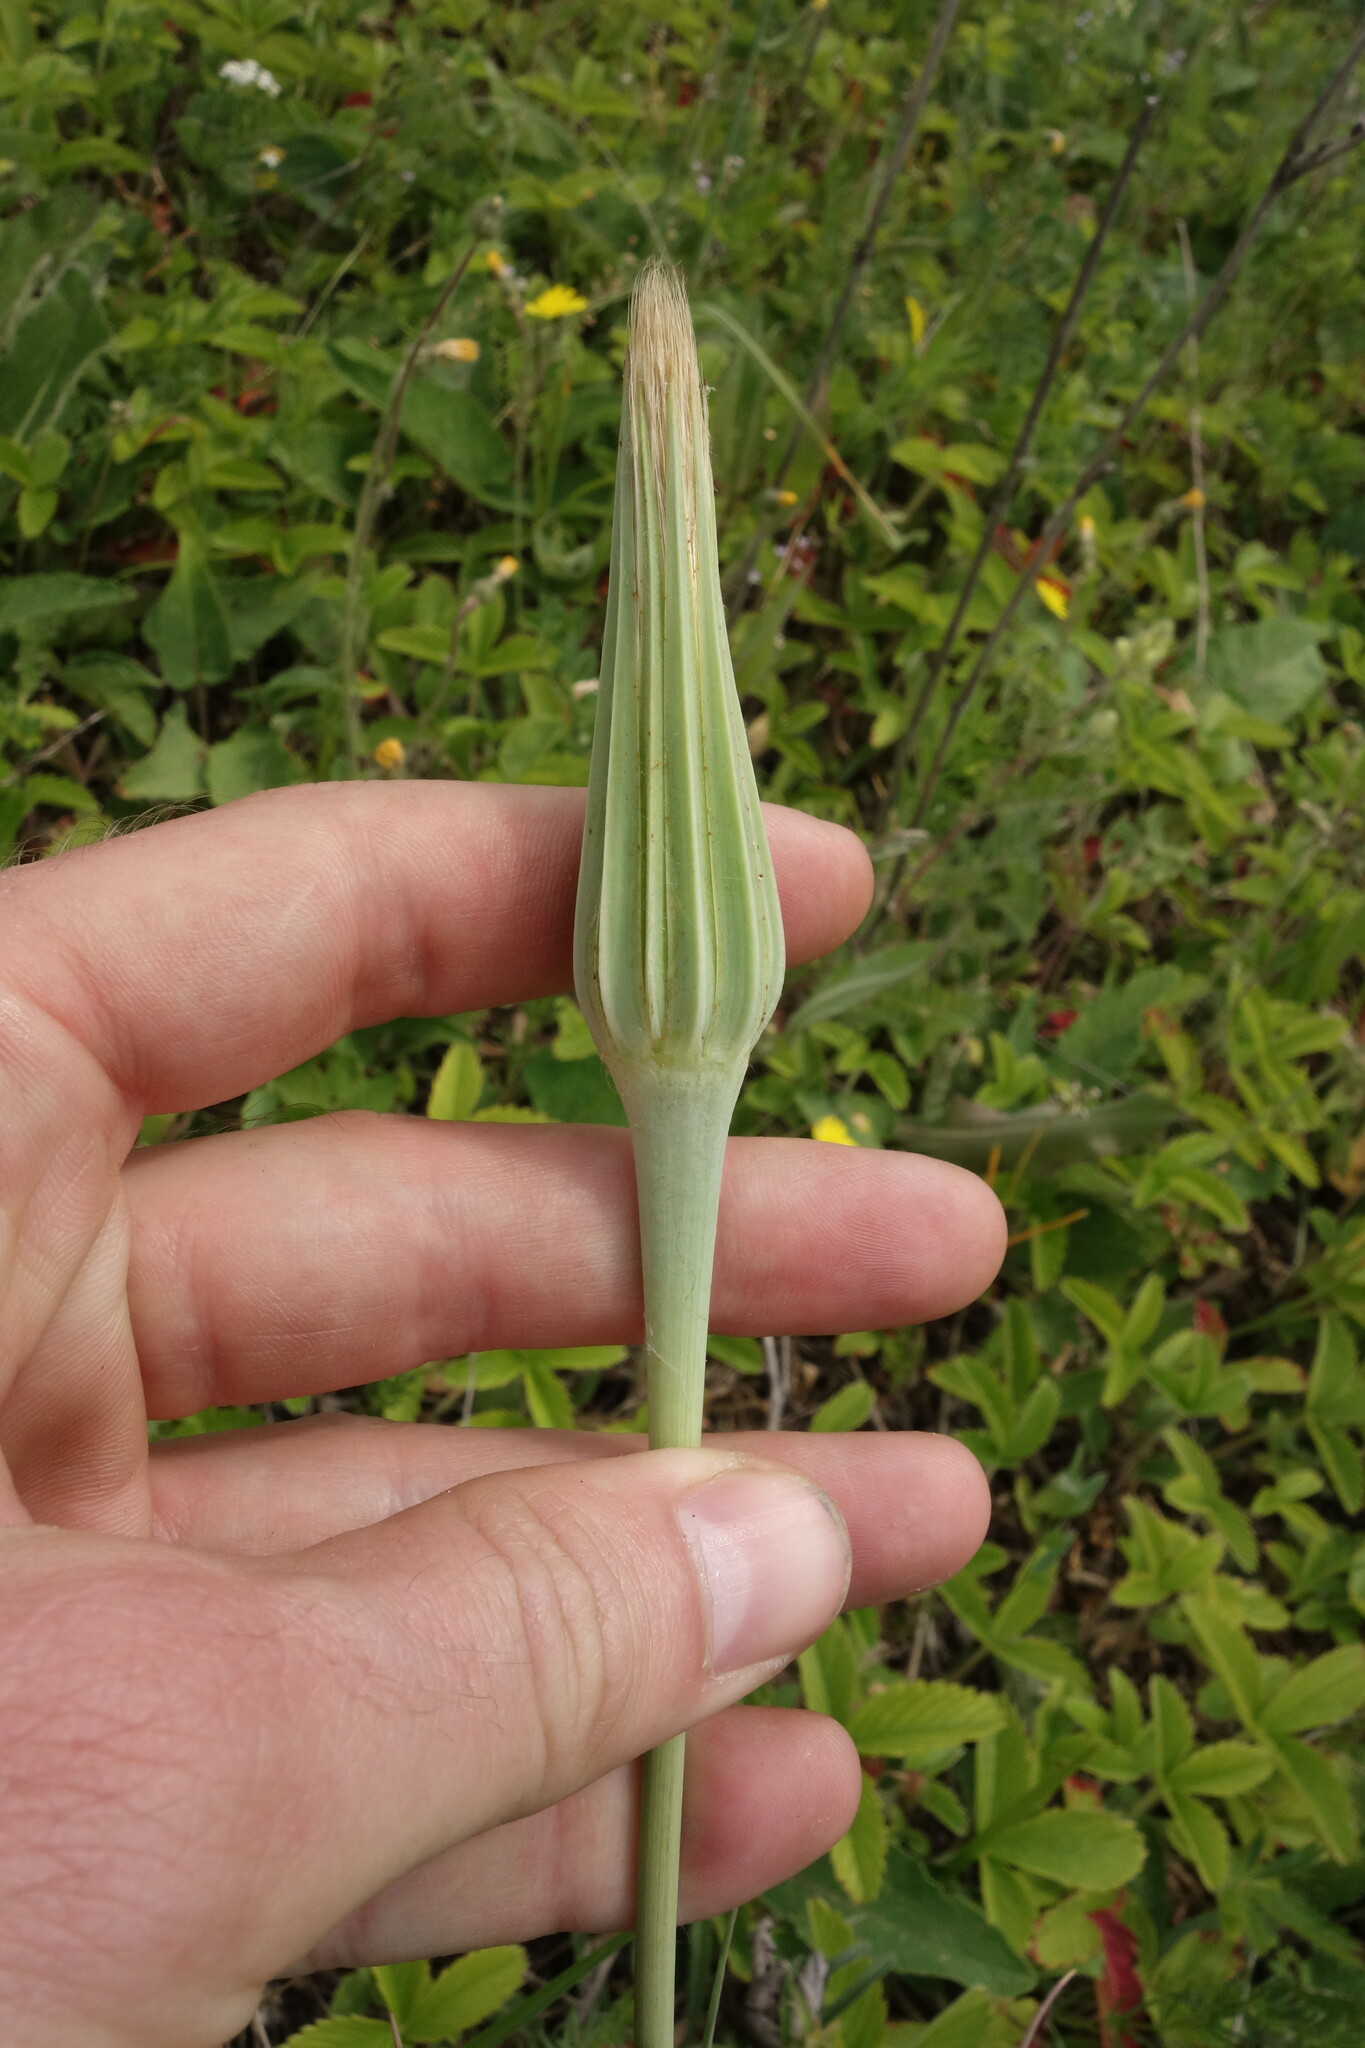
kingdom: Plantae
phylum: Tracheophyta
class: Magnoliopsida
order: Asterales
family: Asteraceae
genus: Tragopogon
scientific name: Tragopogon dubius
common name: Yellow salsify
